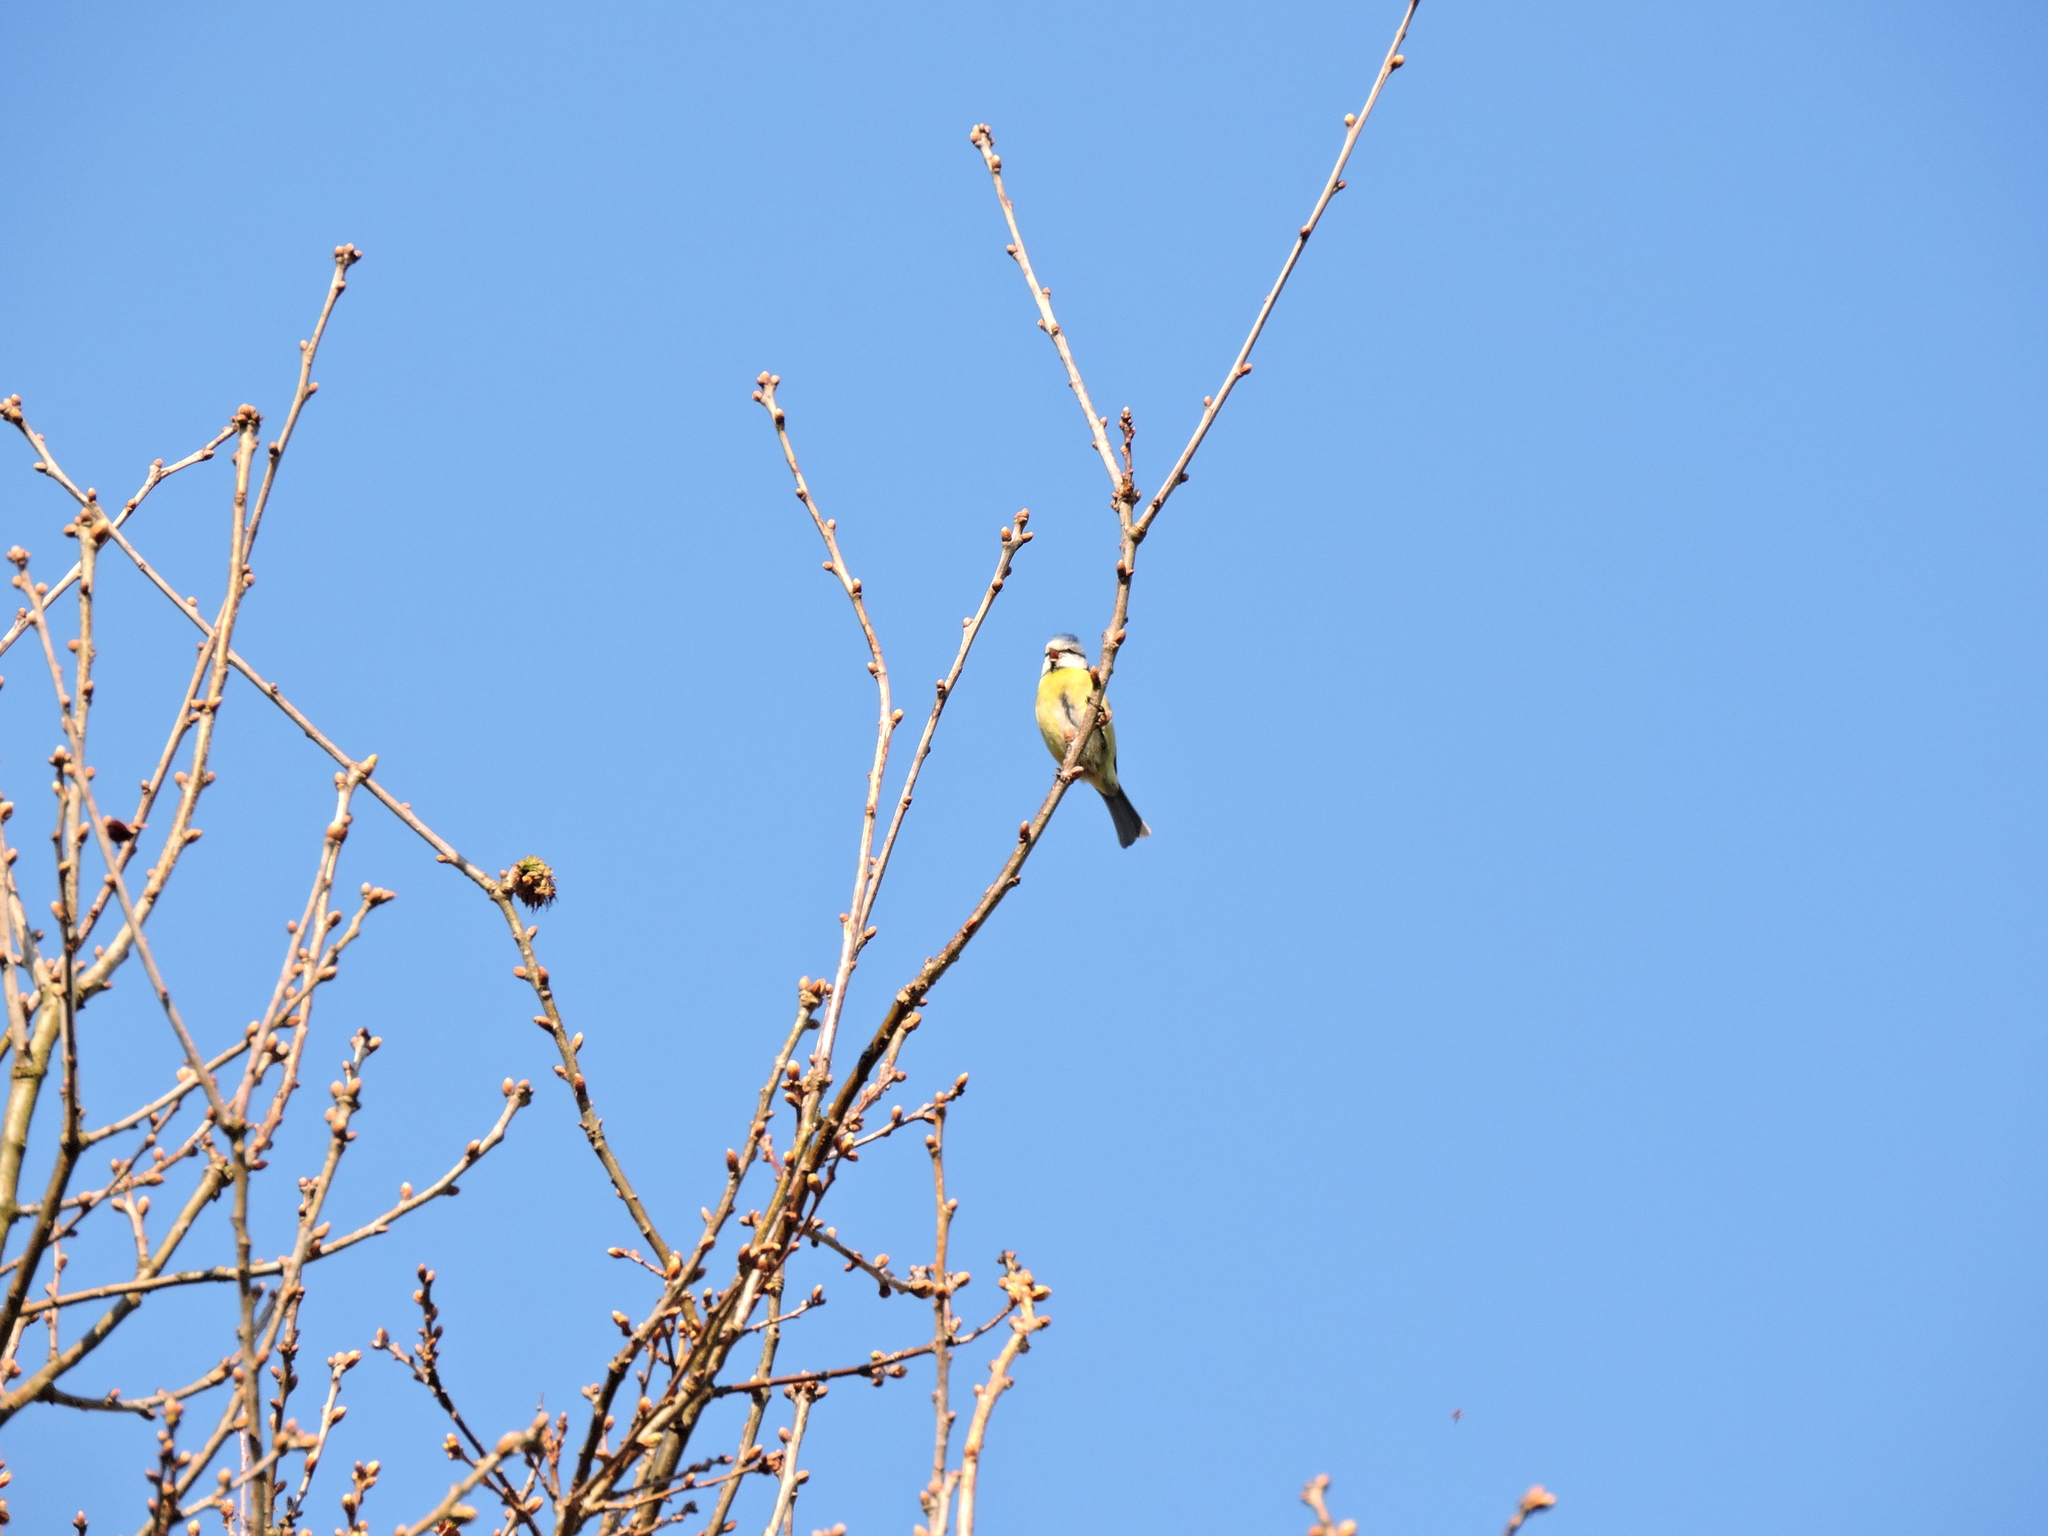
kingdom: Animalia
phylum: Chordata
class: Aves
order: Passeriformes
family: Paridae
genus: Cyanistes
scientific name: Cyanistes caeruleus
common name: Eurasian blue tit
